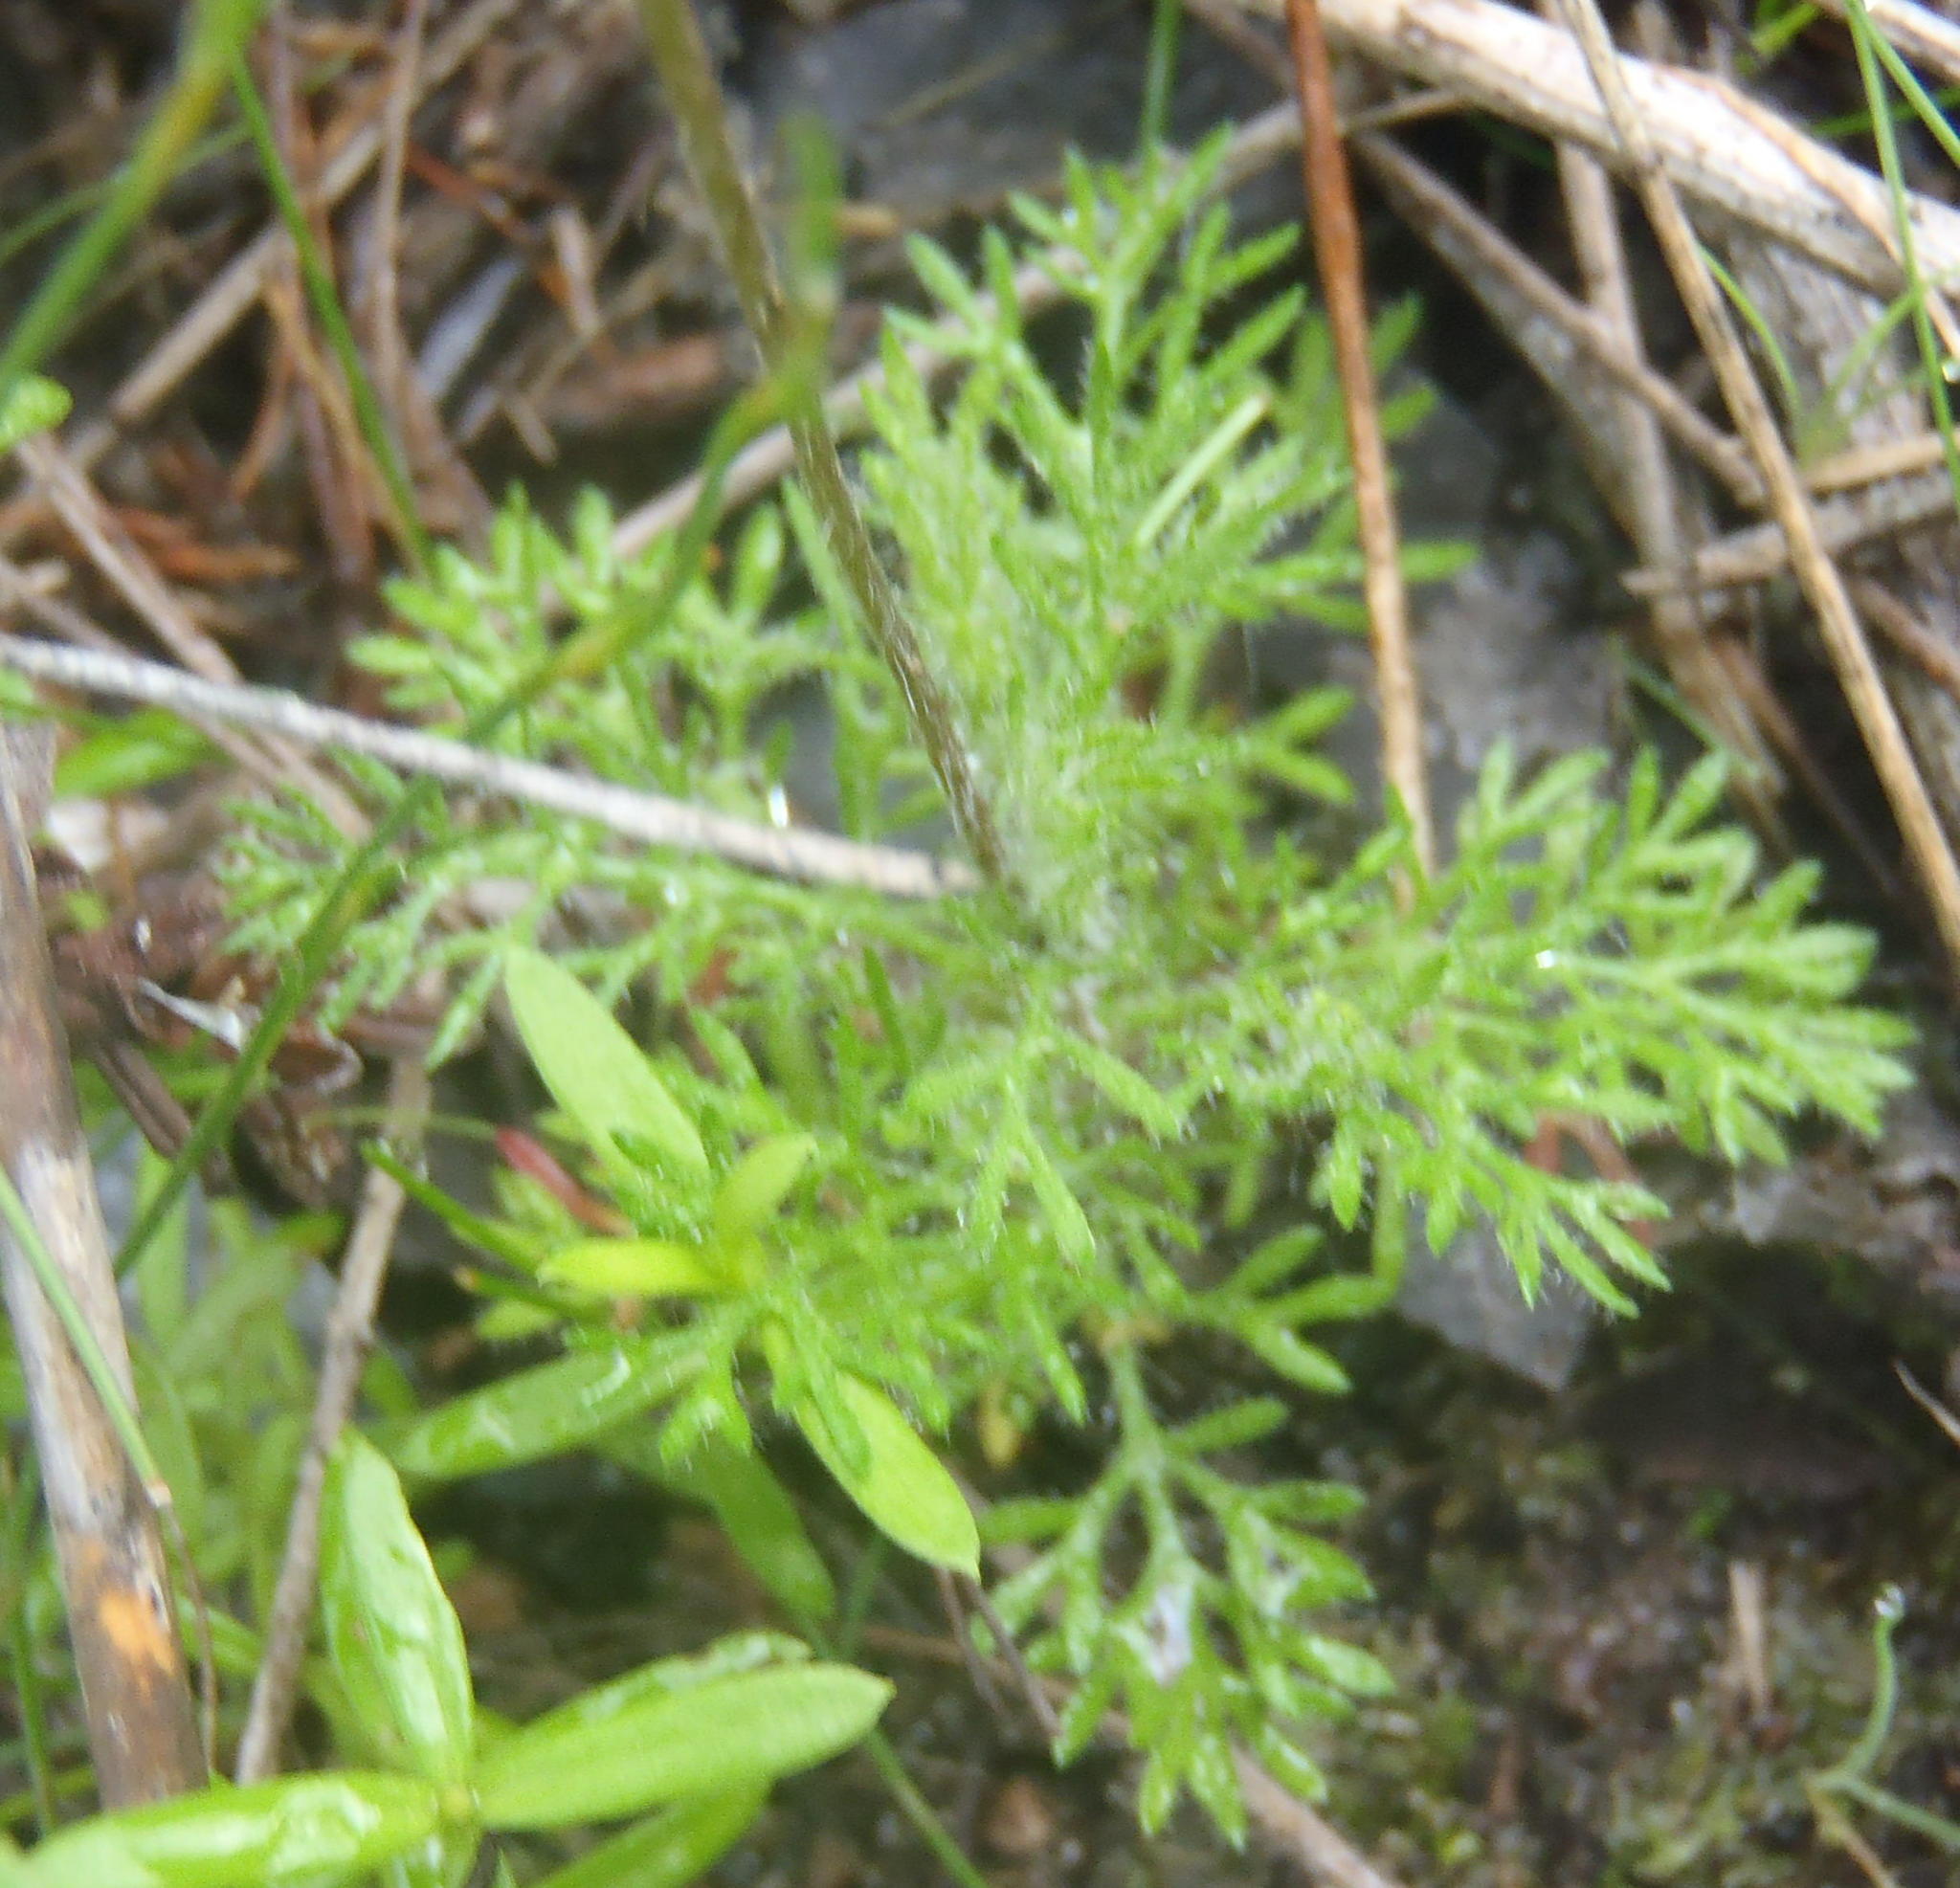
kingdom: Plantae
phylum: Tracheophyta
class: Magnoliopsida
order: Asterales
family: Asteraceae
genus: Cotula
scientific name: Cotula discolor
